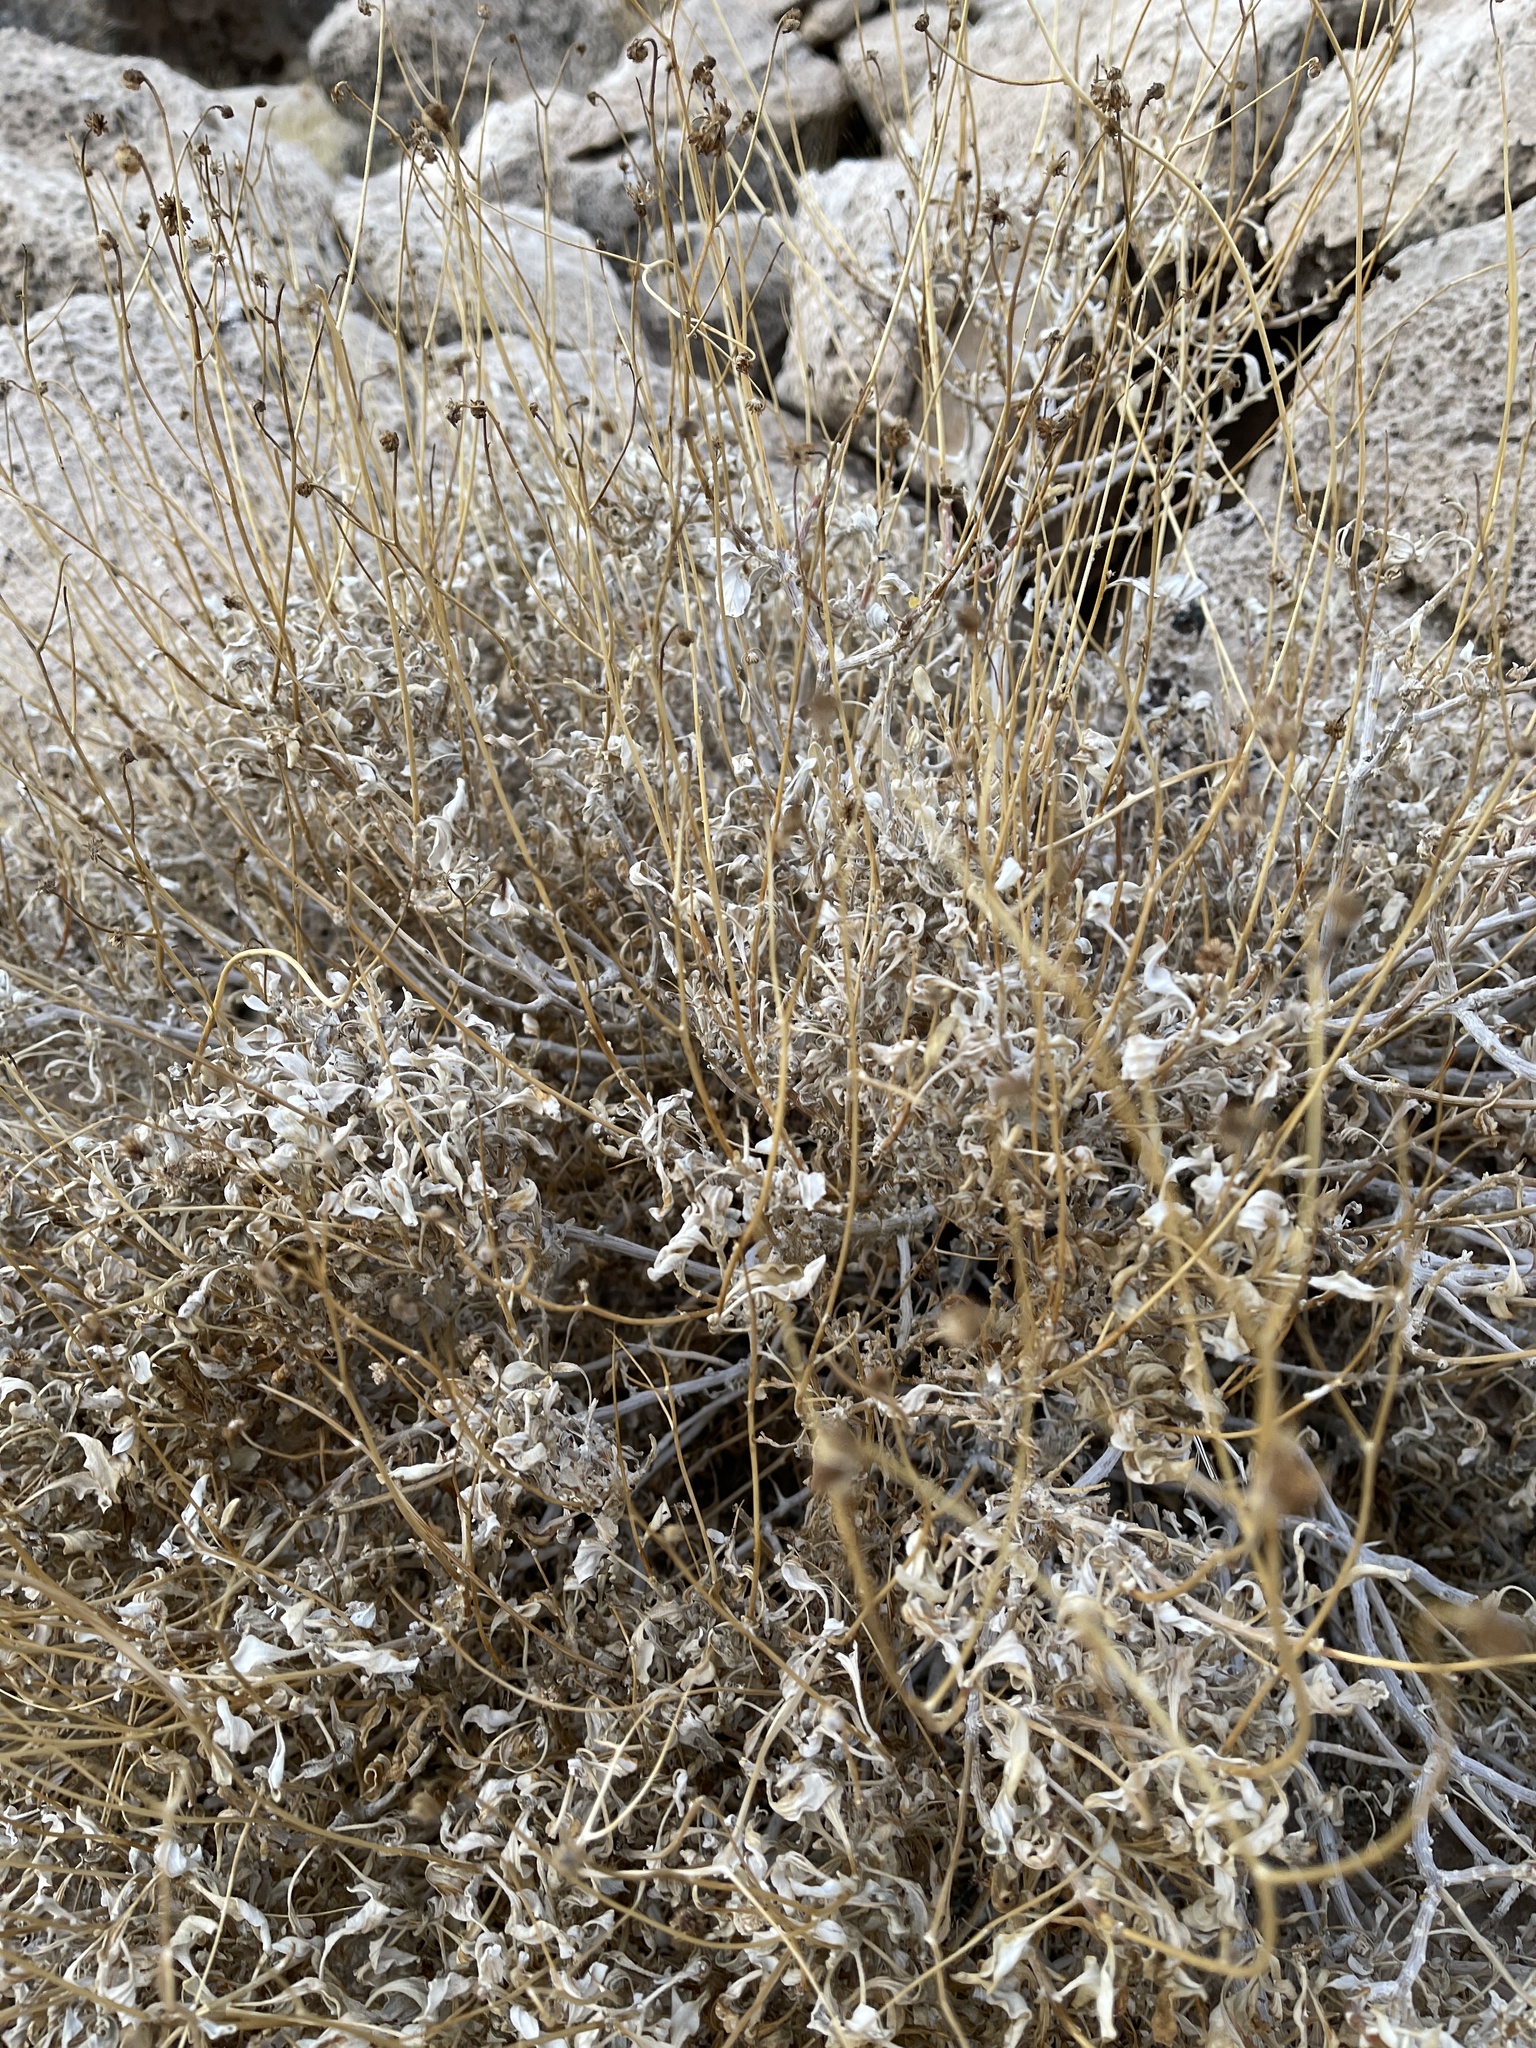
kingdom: Plantae
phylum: Tracheophyta
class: Magnoliopsida
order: Asterales
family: Asteraceae
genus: Encelia
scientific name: Encelia farinosa
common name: Brittlebush
